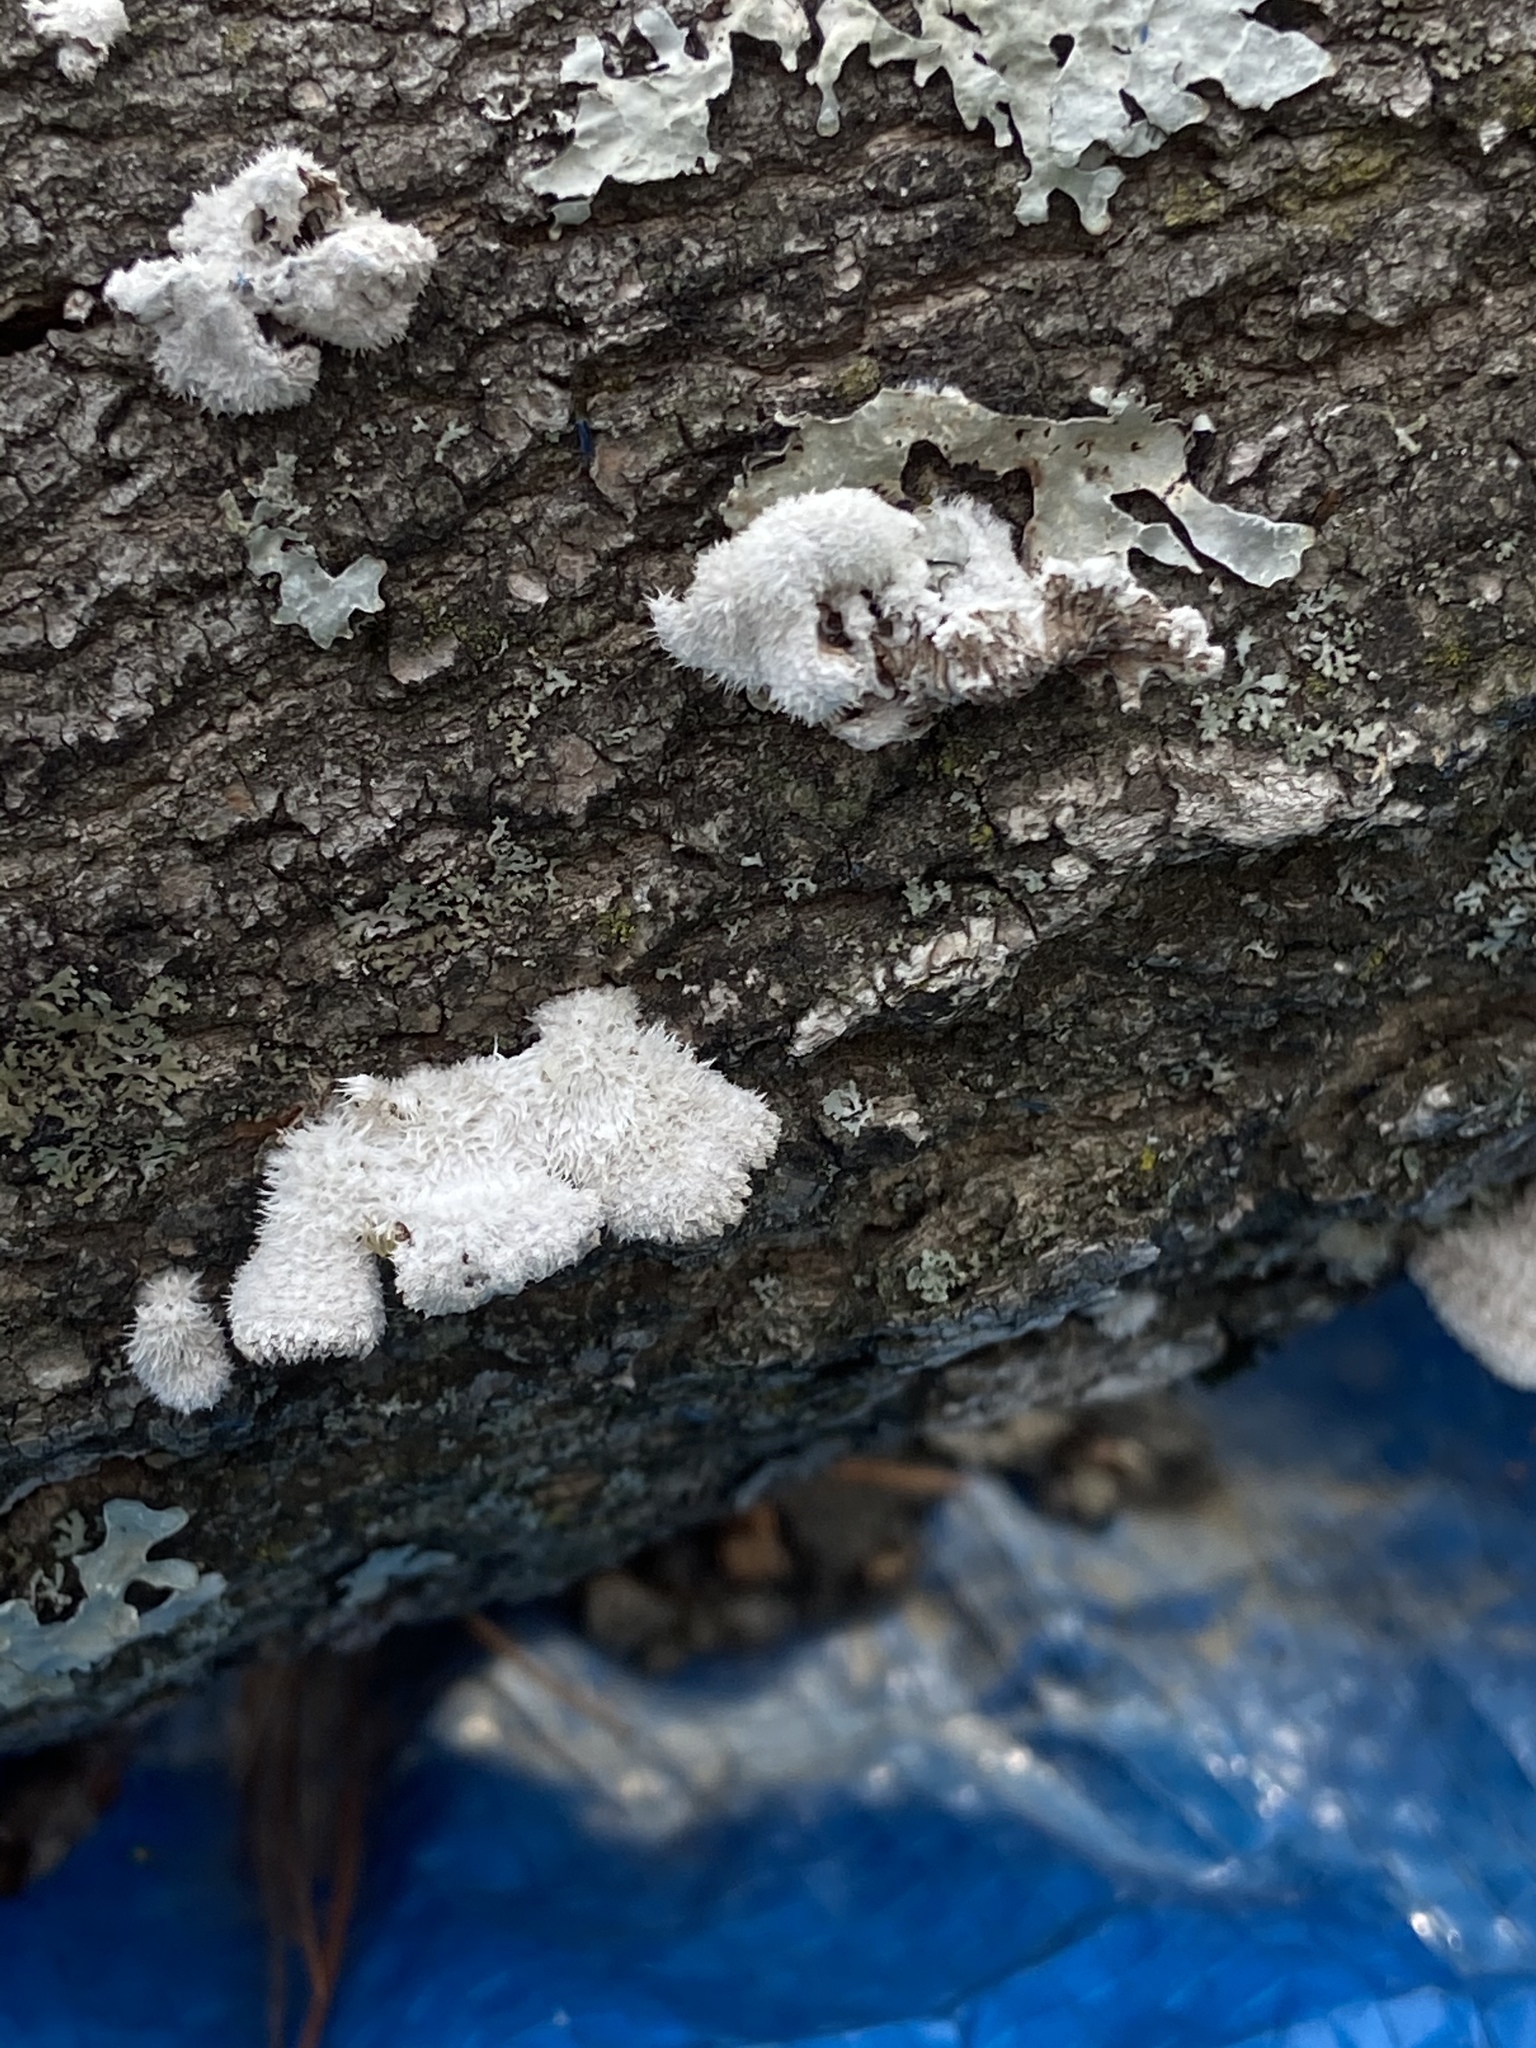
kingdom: Fungi
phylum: Basidiomycota
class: Agaricomycetes
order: Agaricales
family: Schizophyllaceae
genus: Schizophyllum
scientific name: Schizophyllum commune
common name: Common porecrust
